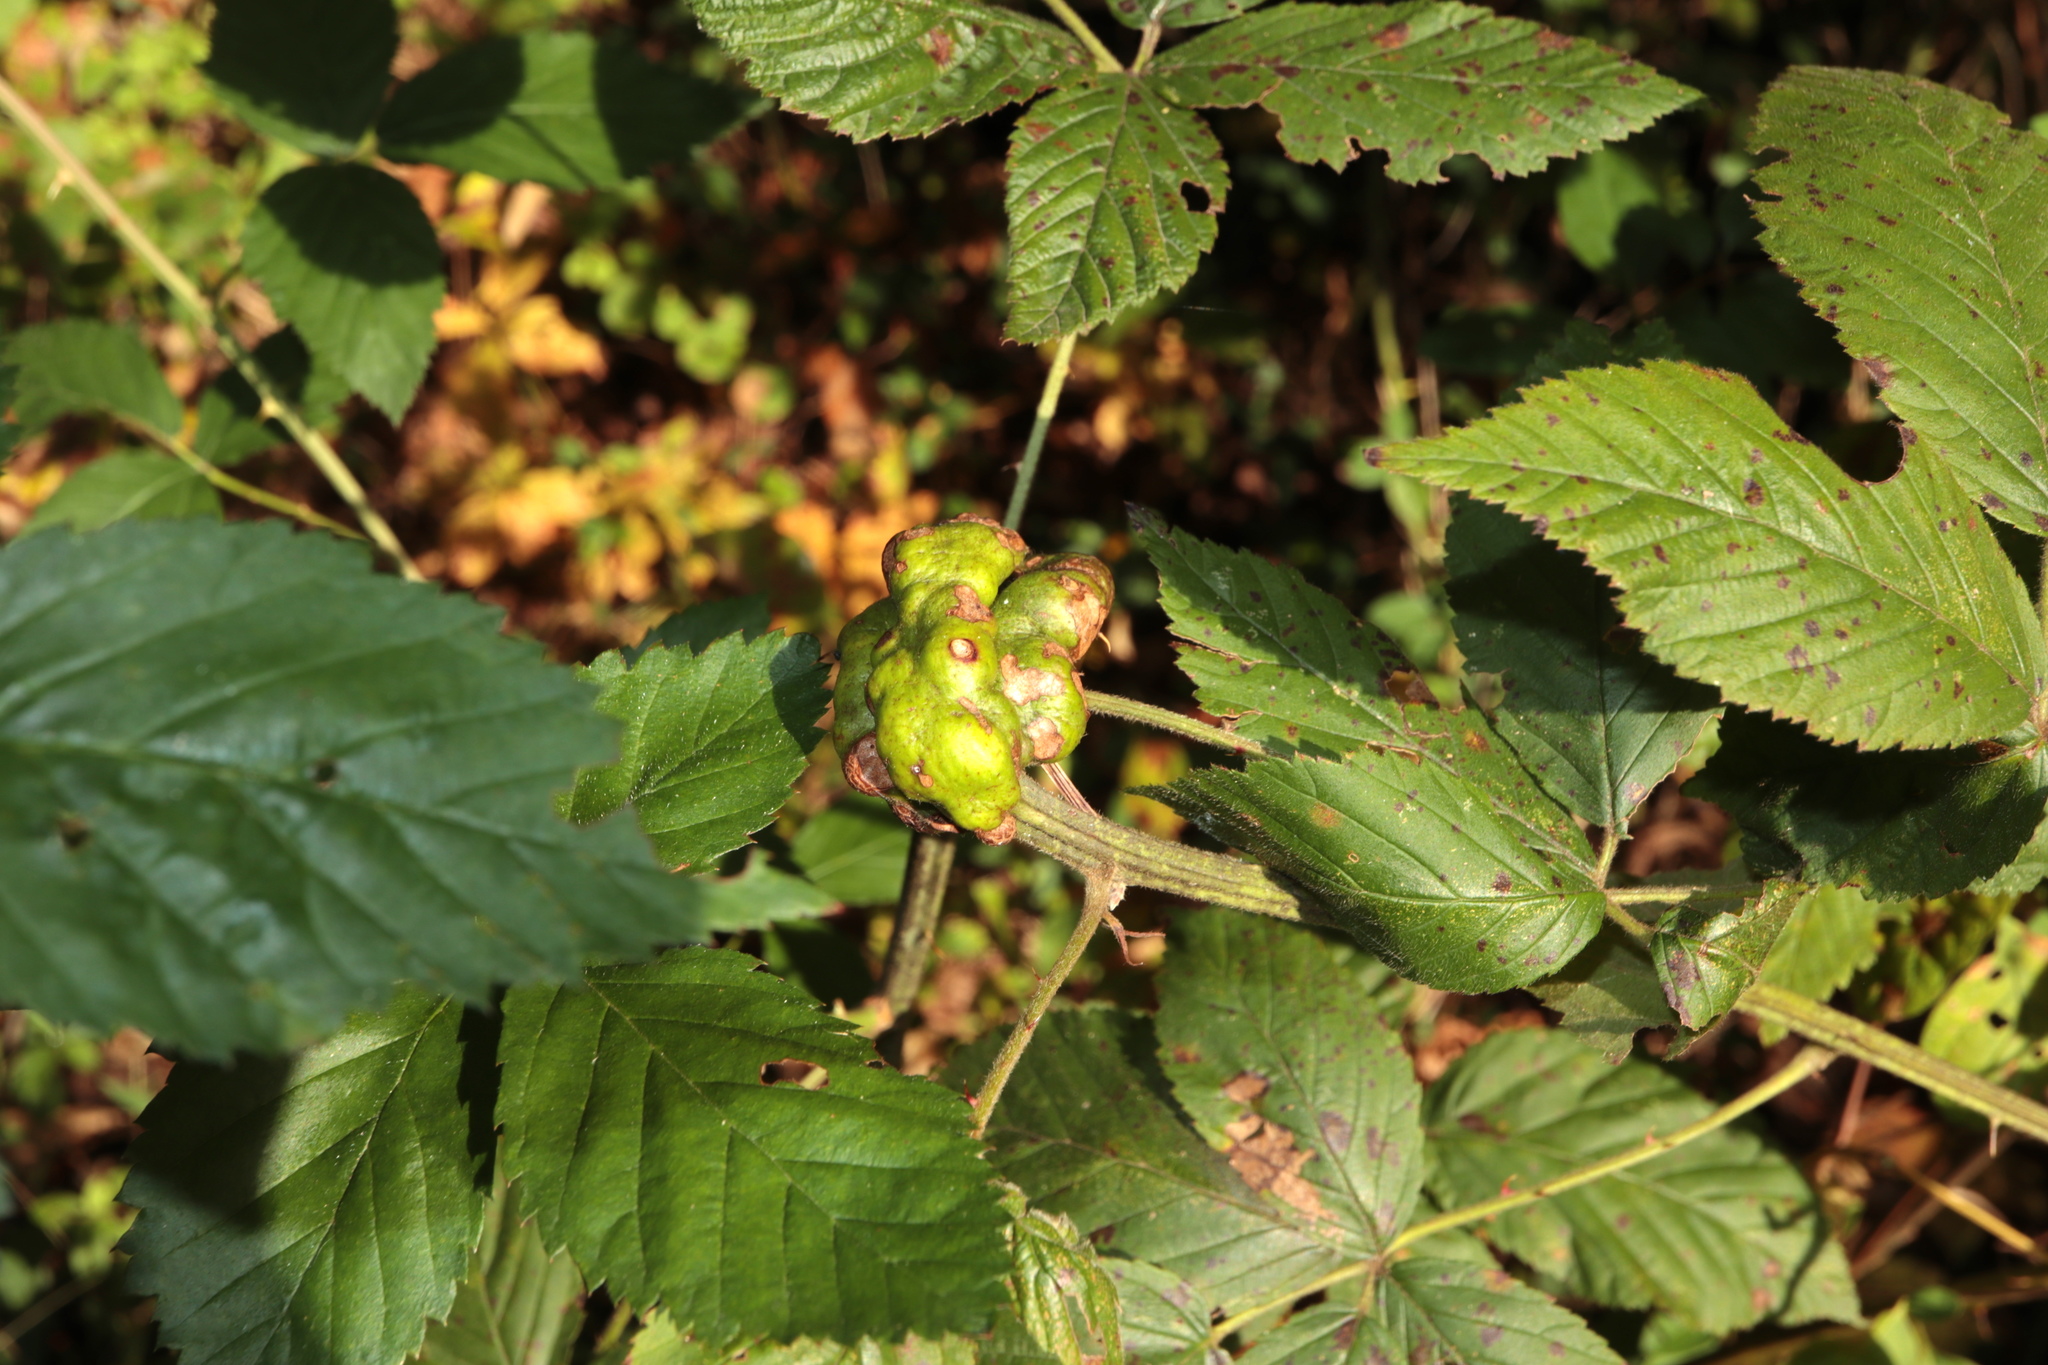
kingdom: Animalia
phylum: Arthropoda
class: Insecta
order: Hymenoptera
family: Cynipidae
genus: Diastrophus
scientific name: Diastrophus
